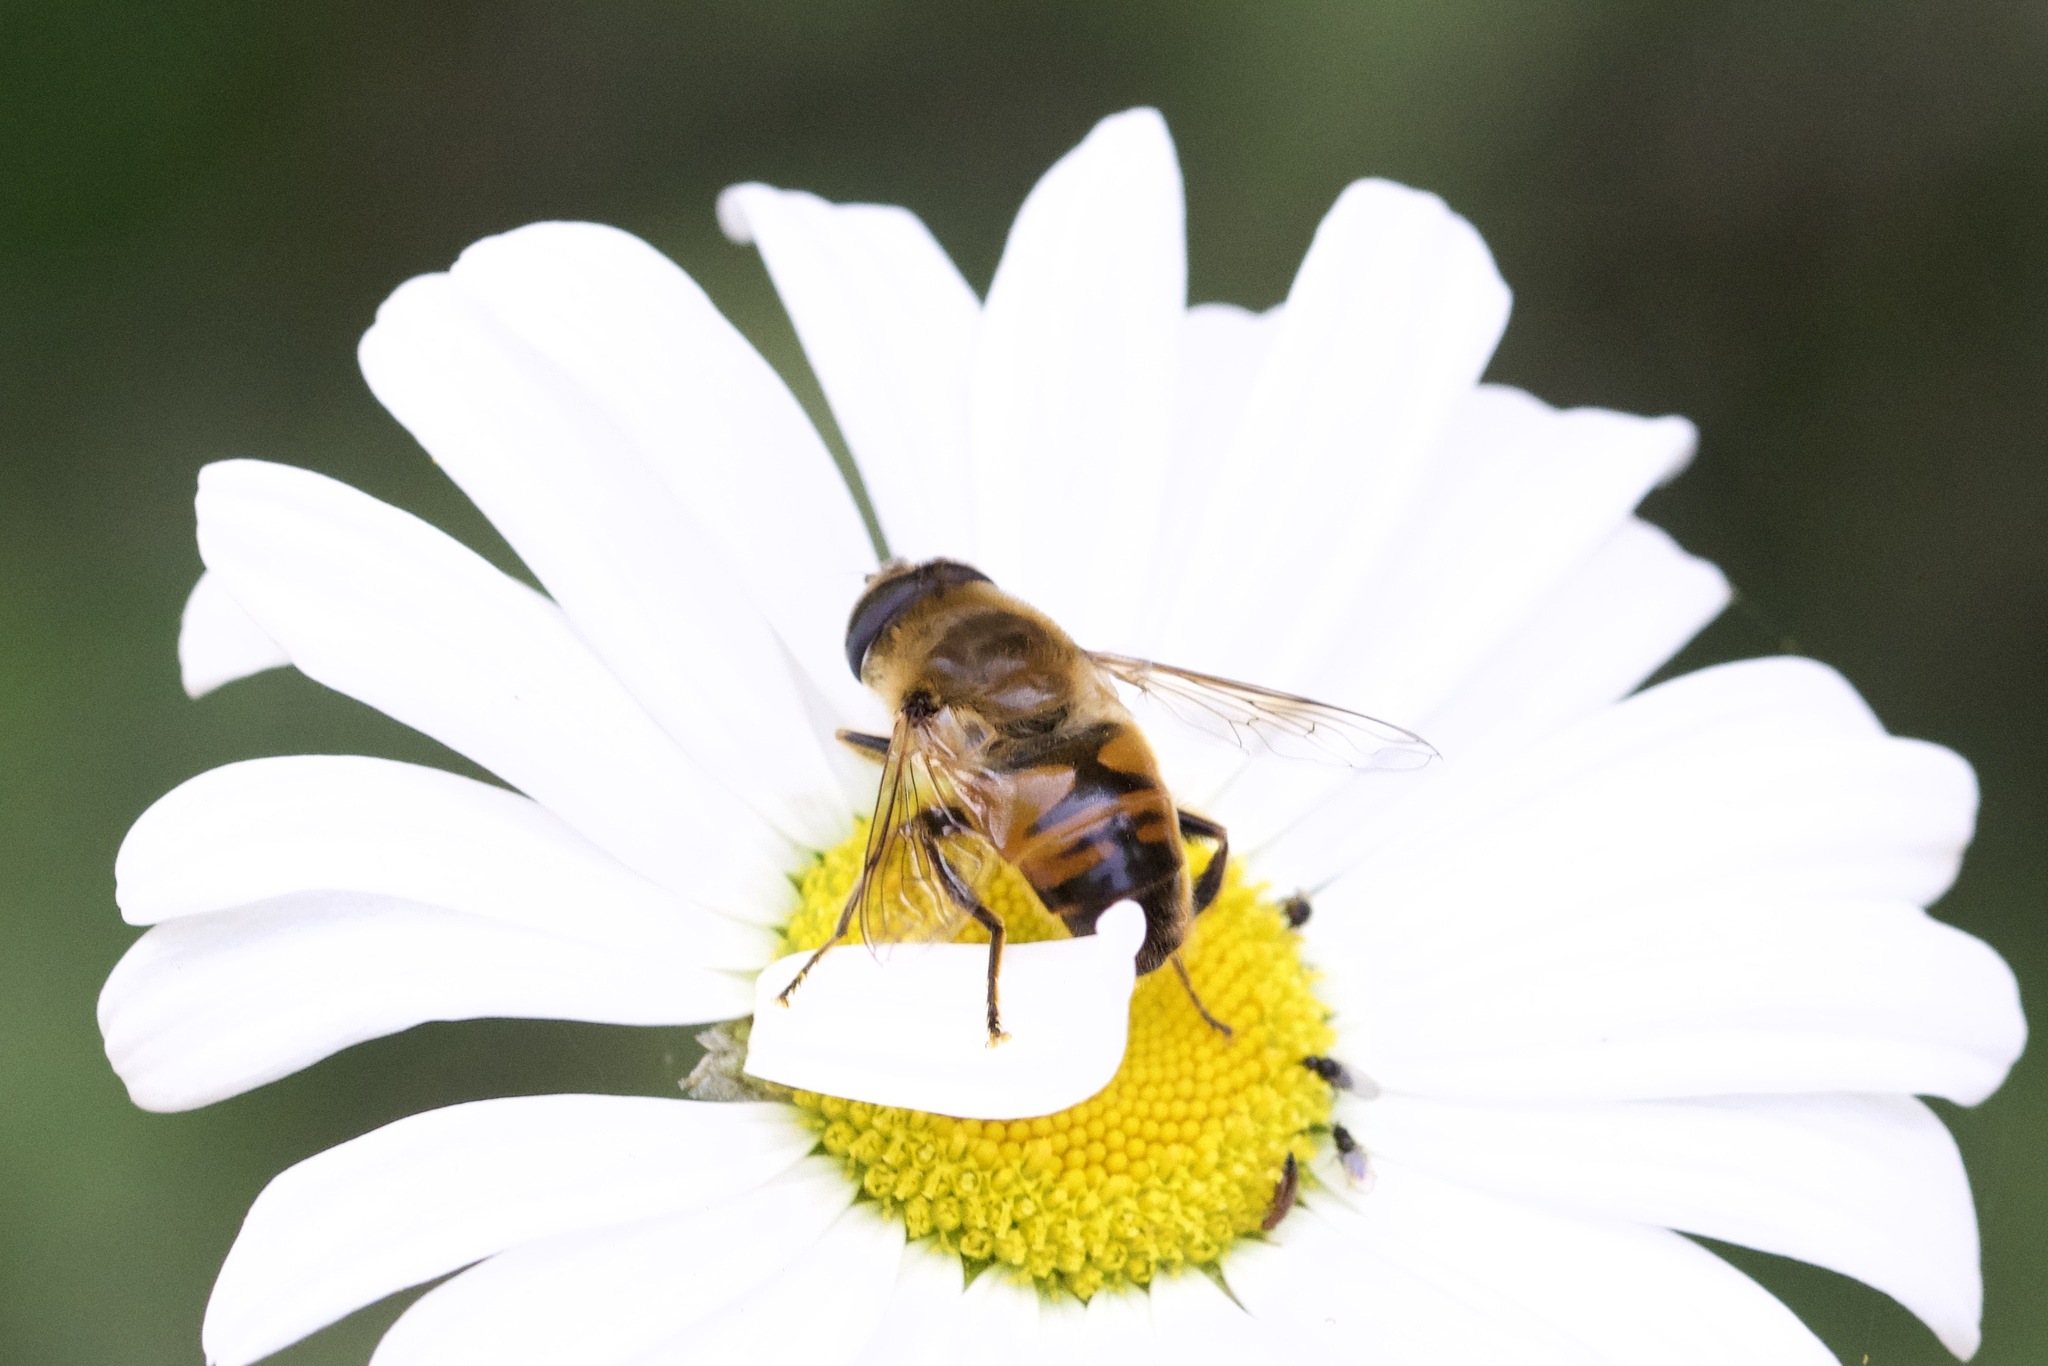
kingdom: Animalia
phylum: Arthropoda
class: Insecta
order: Diptera
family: Syrphidae
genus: Eristalis
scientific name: Eristalis tenax
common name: Drone fly
